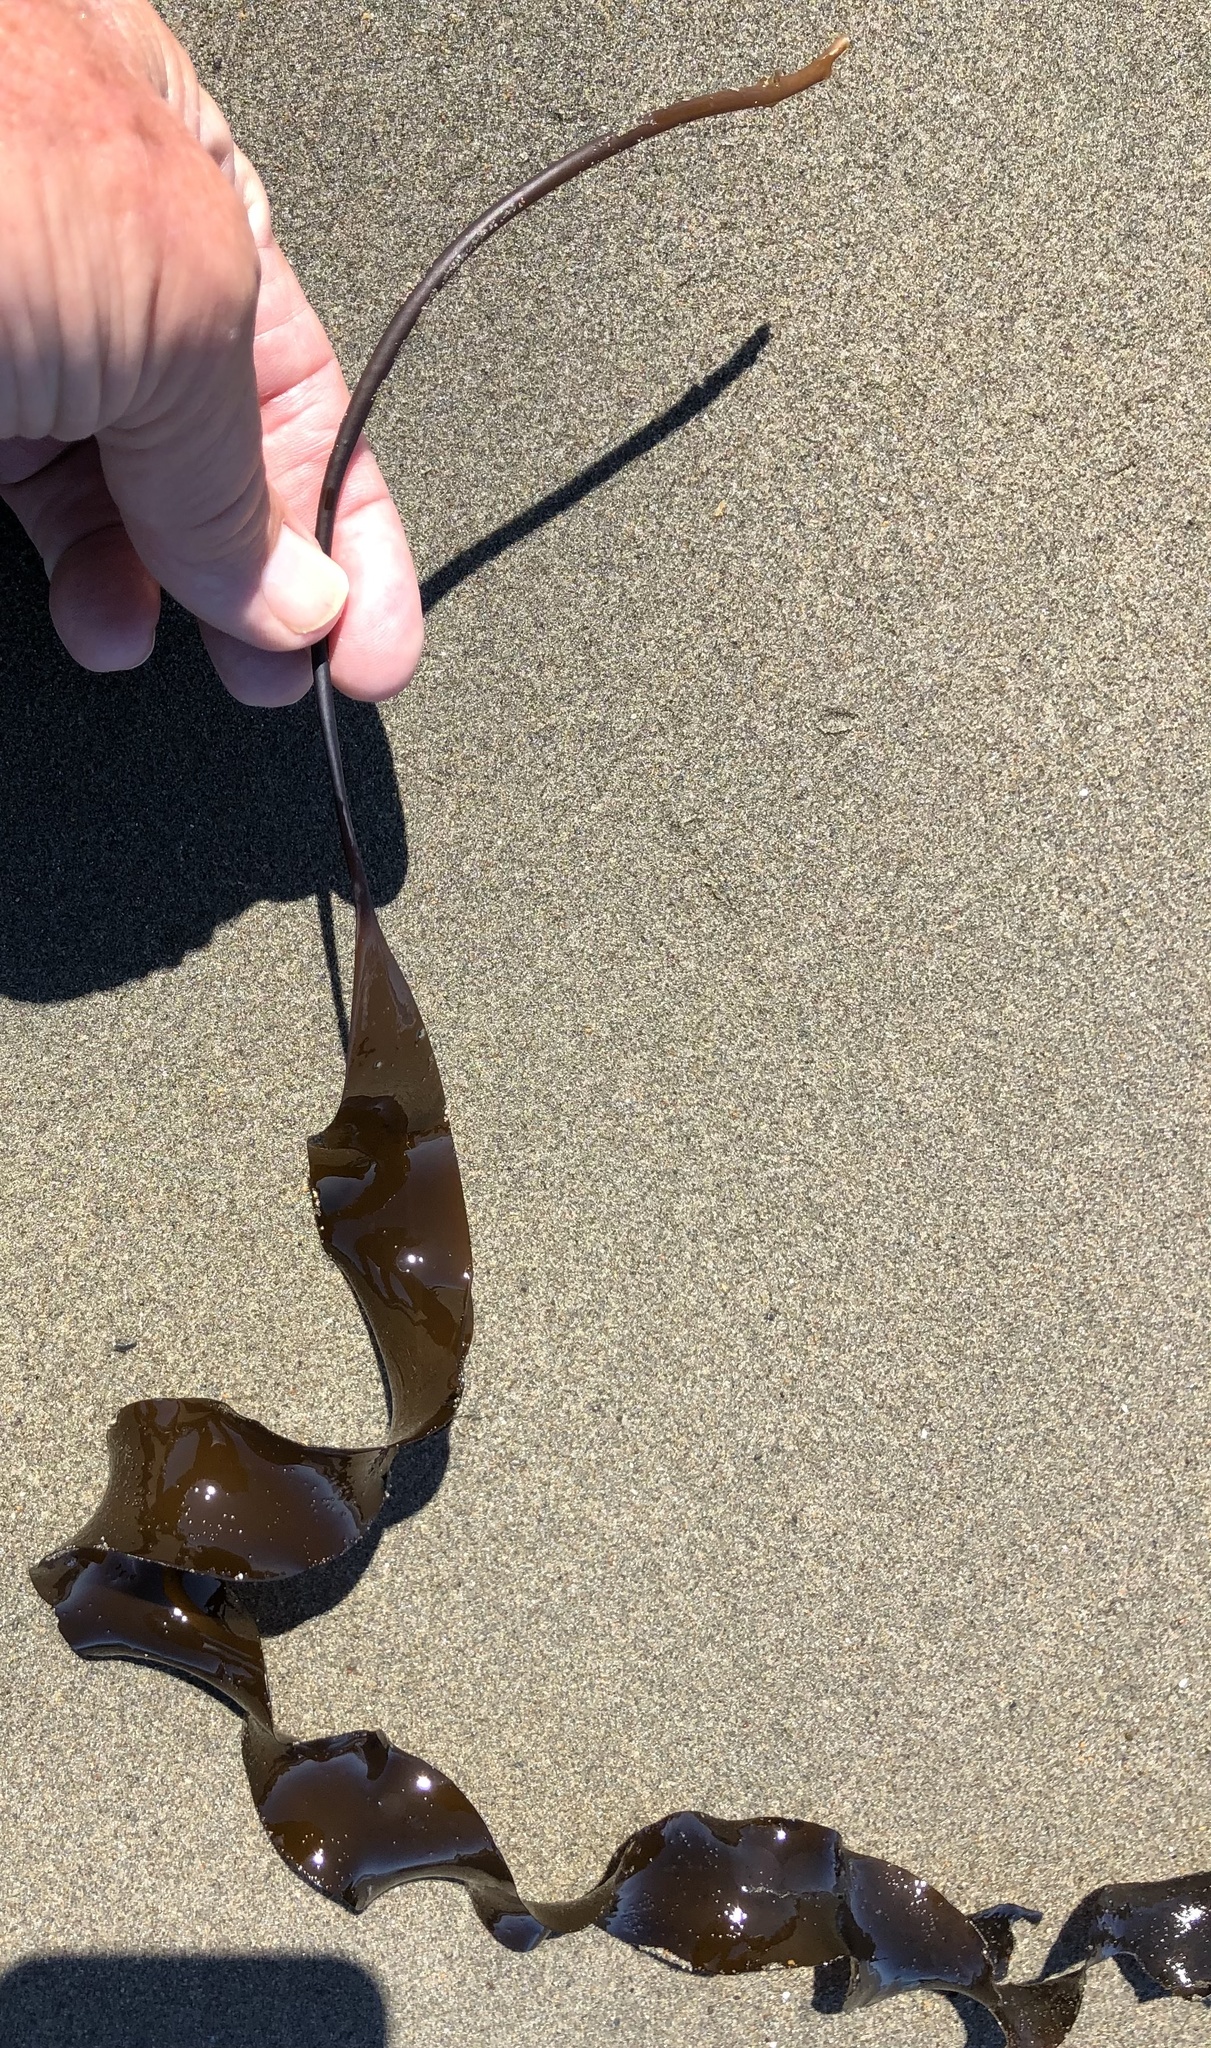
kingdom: Chromista
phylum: Ochrophyta
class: Phaeophyceae
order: Laminariales
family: Laminariaceae
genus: Laminaria
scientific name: Laminaria sinclairii
